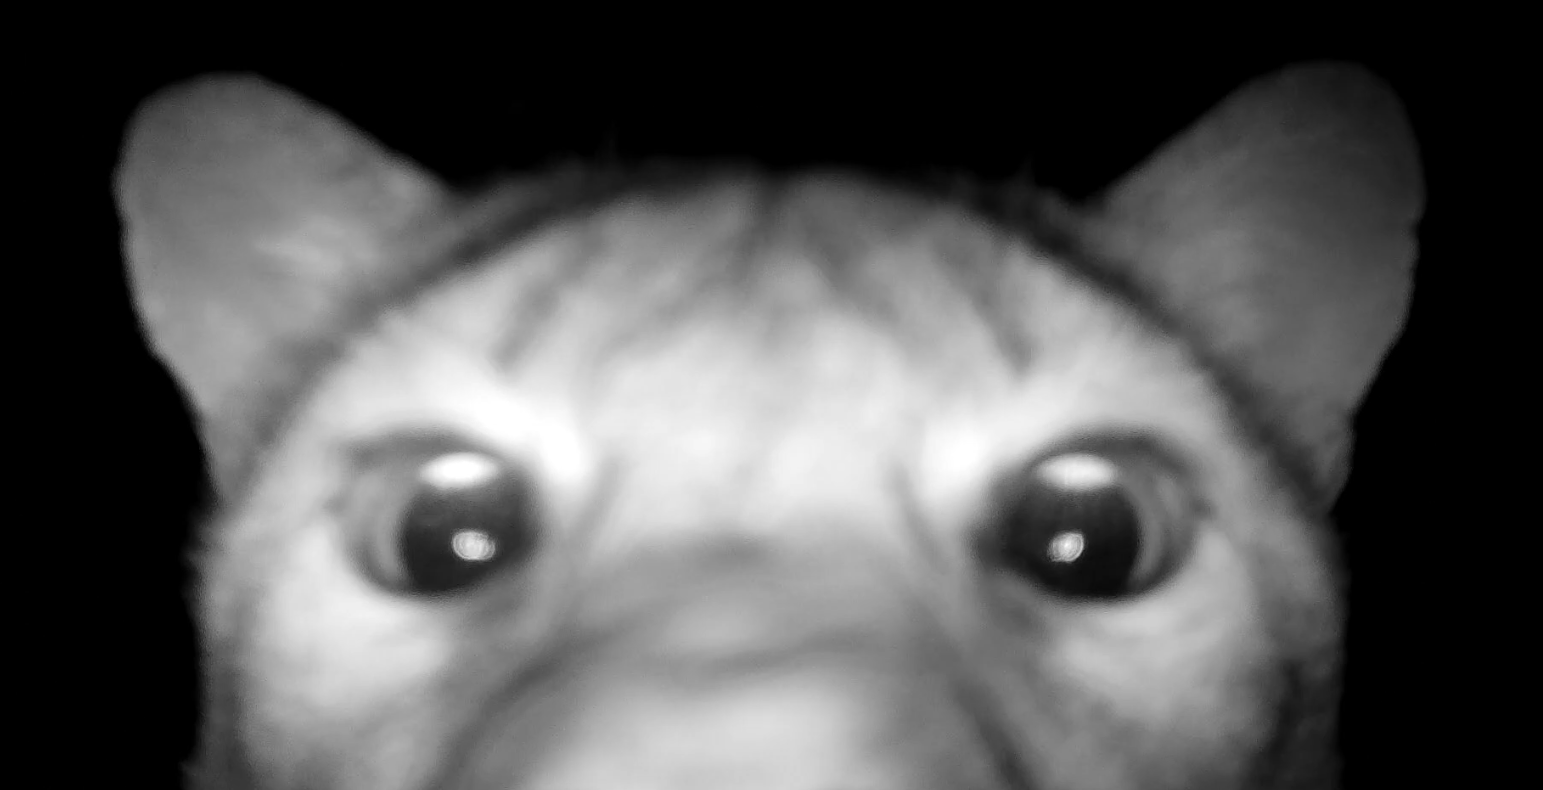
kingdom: Animalia
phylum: Chordata
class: Mammalia
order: Carnivora
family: Felidae
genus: Puma
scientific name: Puma concolor
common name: Puma
